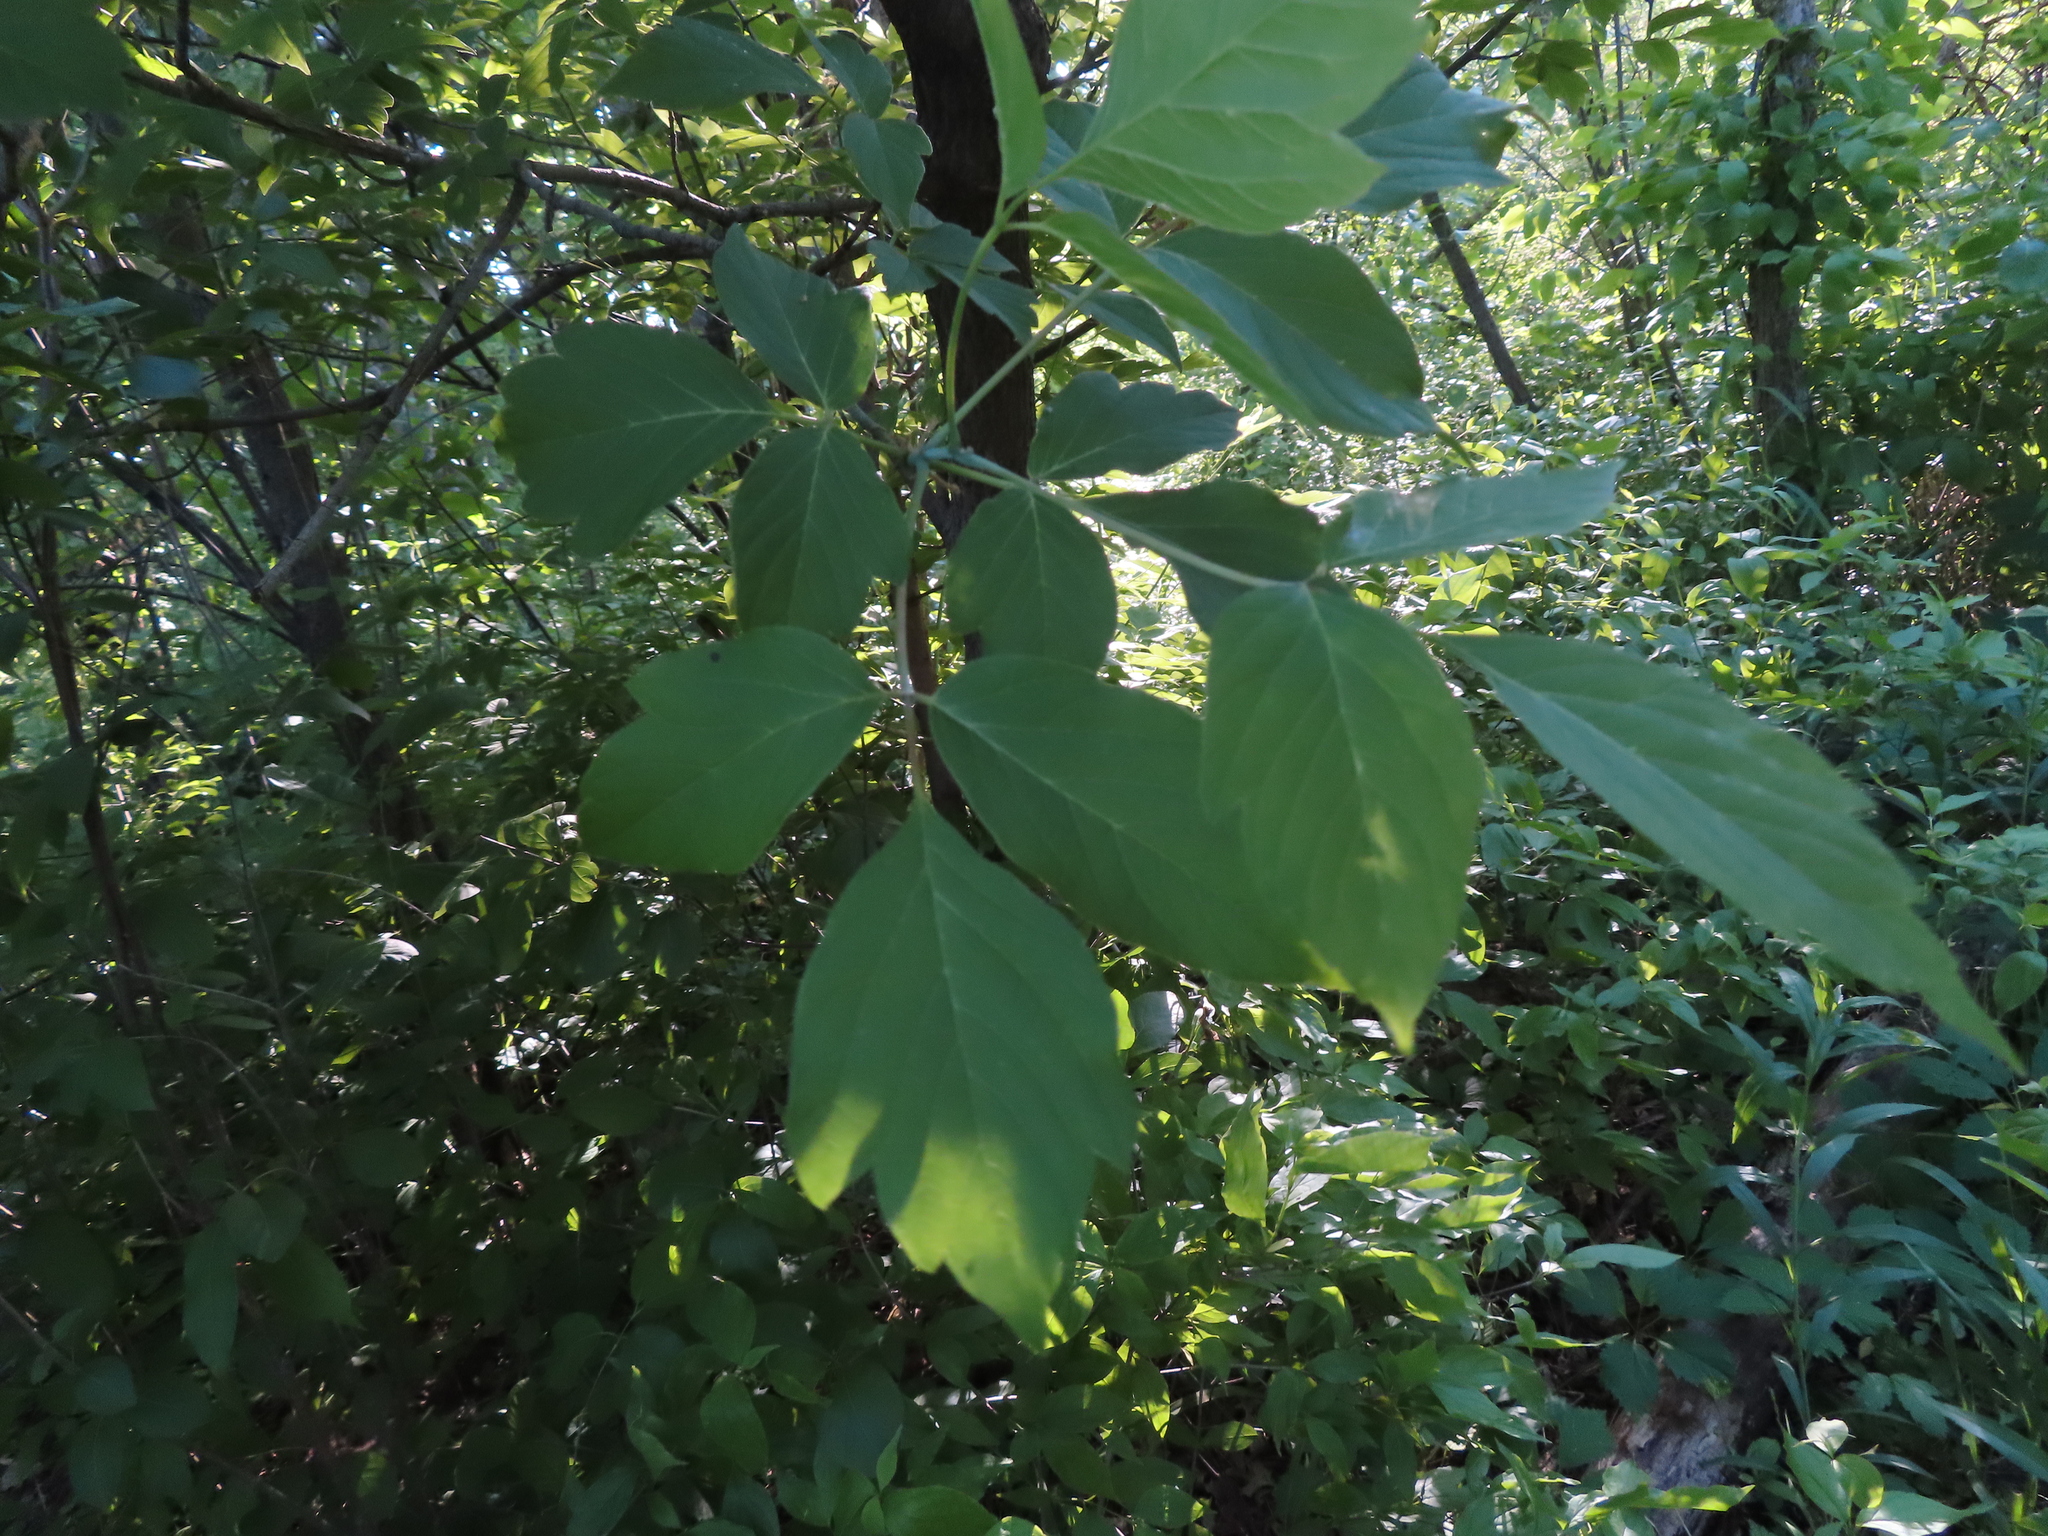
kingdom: Plantae
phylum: Tracheophyta
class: Magnoliopsida
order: Sapindales
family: Sapindaceae
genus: Acer
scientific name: Acer negundo
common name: Ashleaf maple
